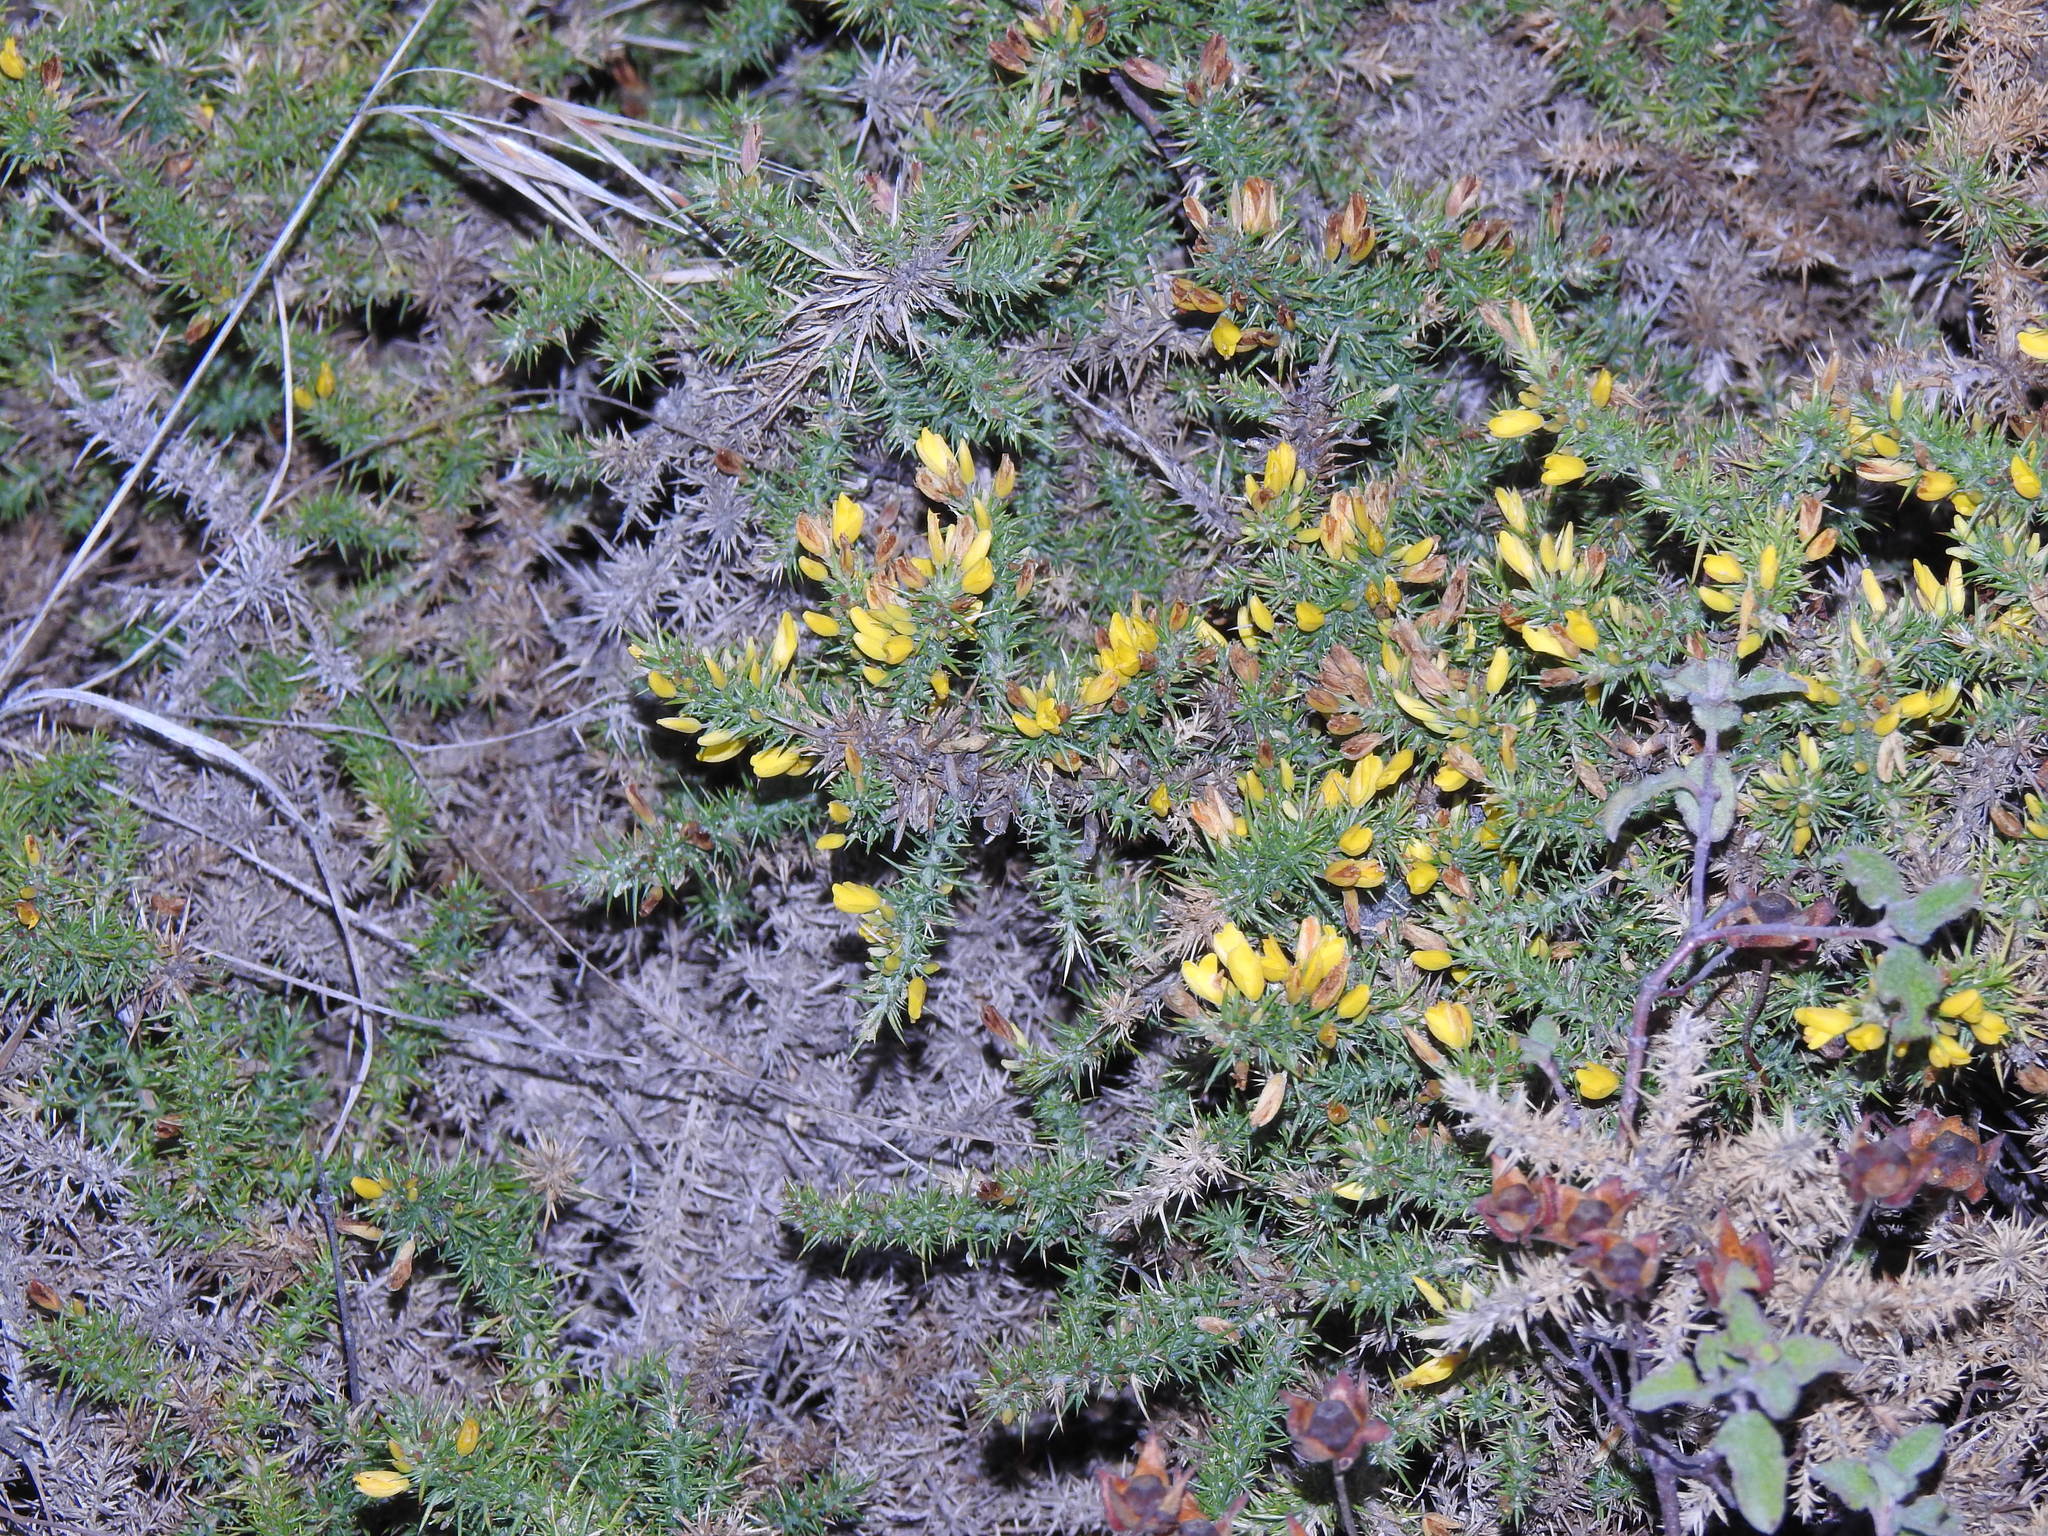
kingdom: Plantae
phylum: Tracheophyta
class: Magnoliopsida
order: Fabales
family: Fabaceae
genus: Ulex
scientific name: Ulex minor
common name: Dwarf gorse
